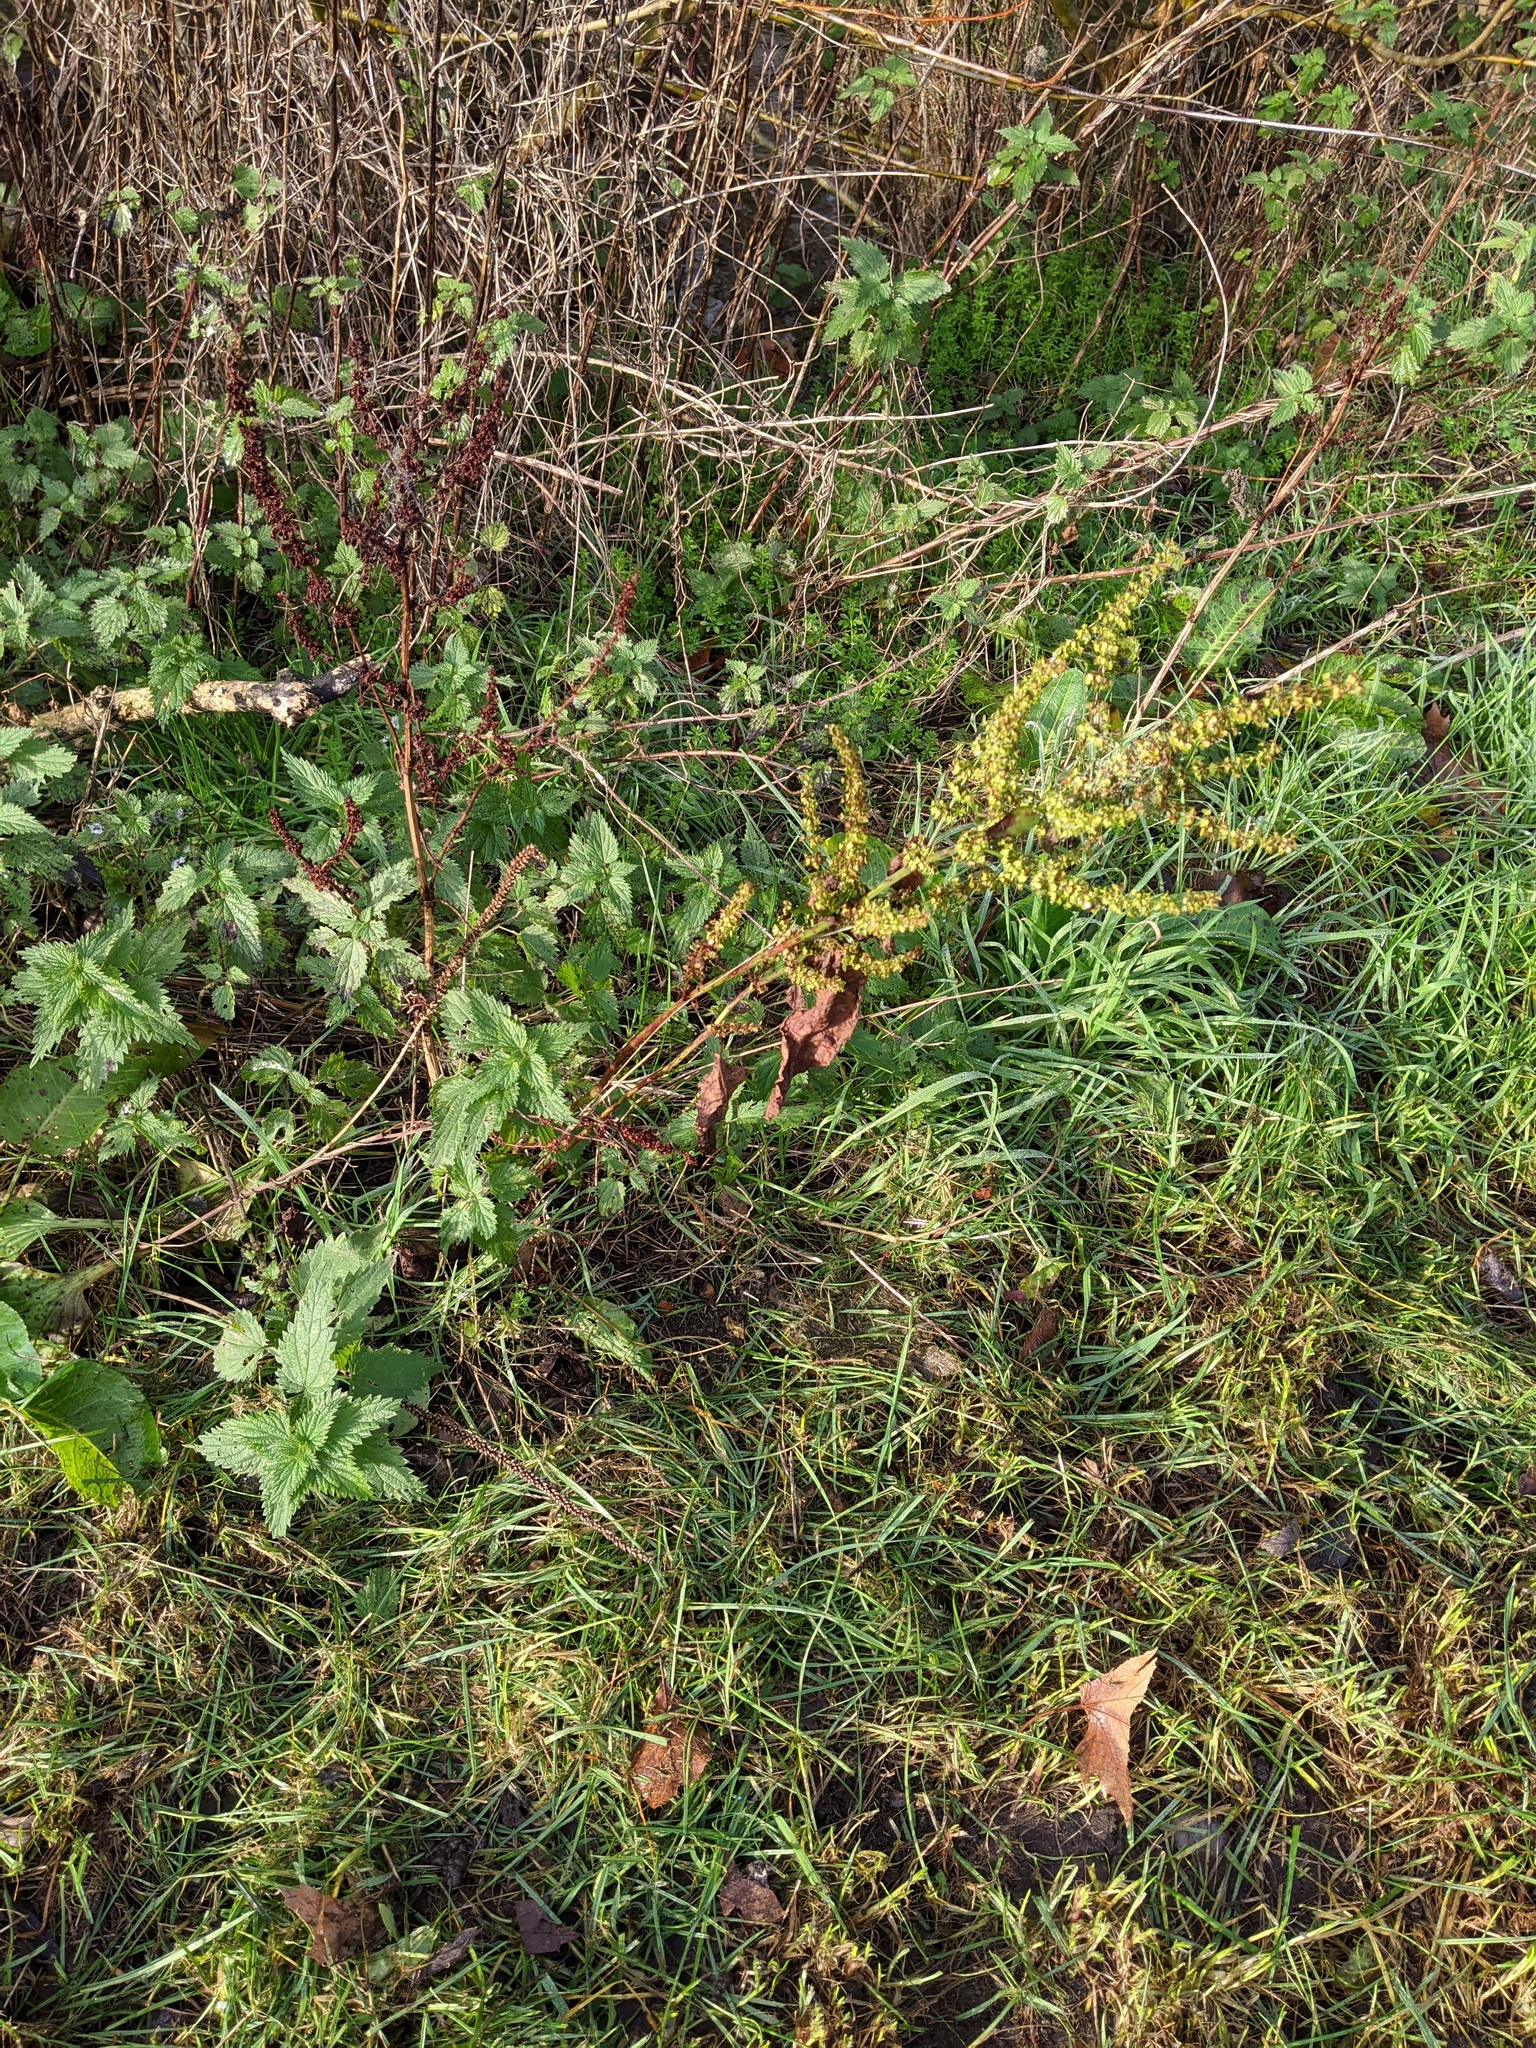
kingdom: Plantae
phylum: Tracheophyta
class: Magnoliopsida
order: Caryophyllales
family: Polygonaceae
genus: Rumex
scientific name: Rumex obtusifolius
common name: Bitter dock
